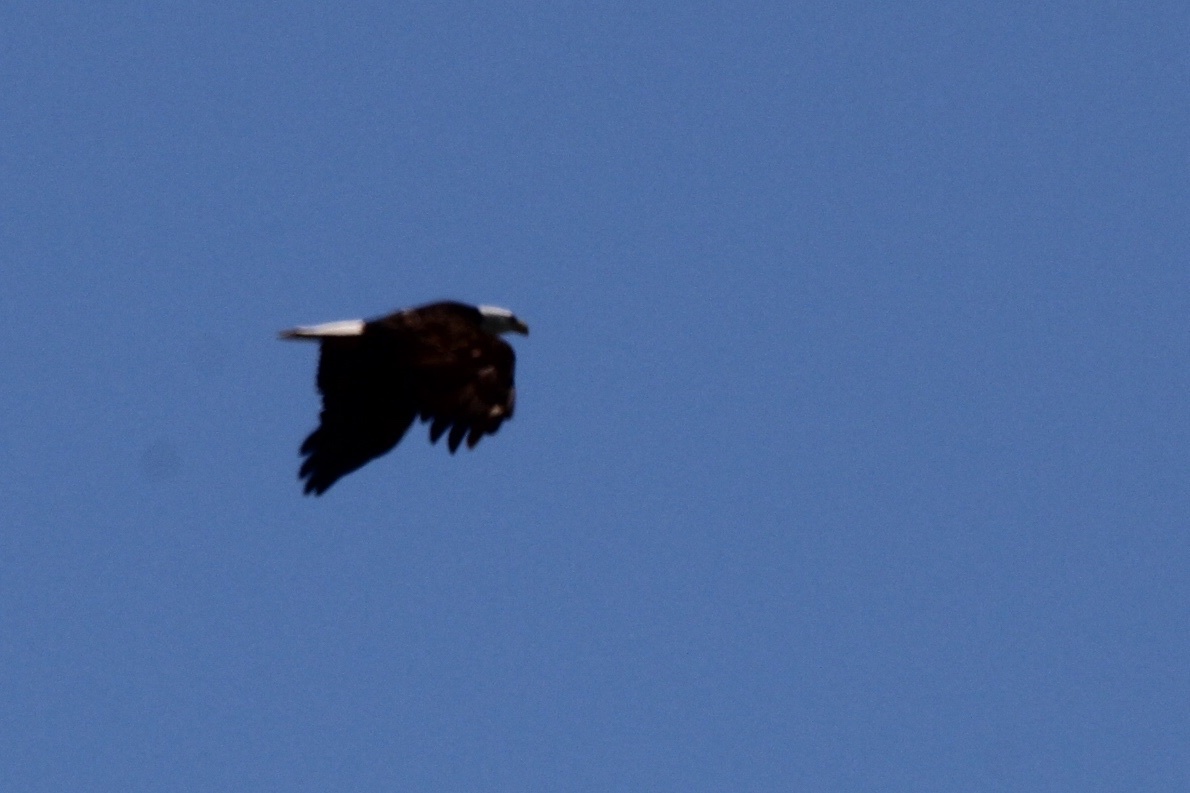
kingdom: Animalia
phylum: Chordata
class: Aves
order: Accipitriformes
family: Accipitridae
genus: Haliaeetus
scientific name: Haliaeetus leucocephalus
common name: Bald eagle
